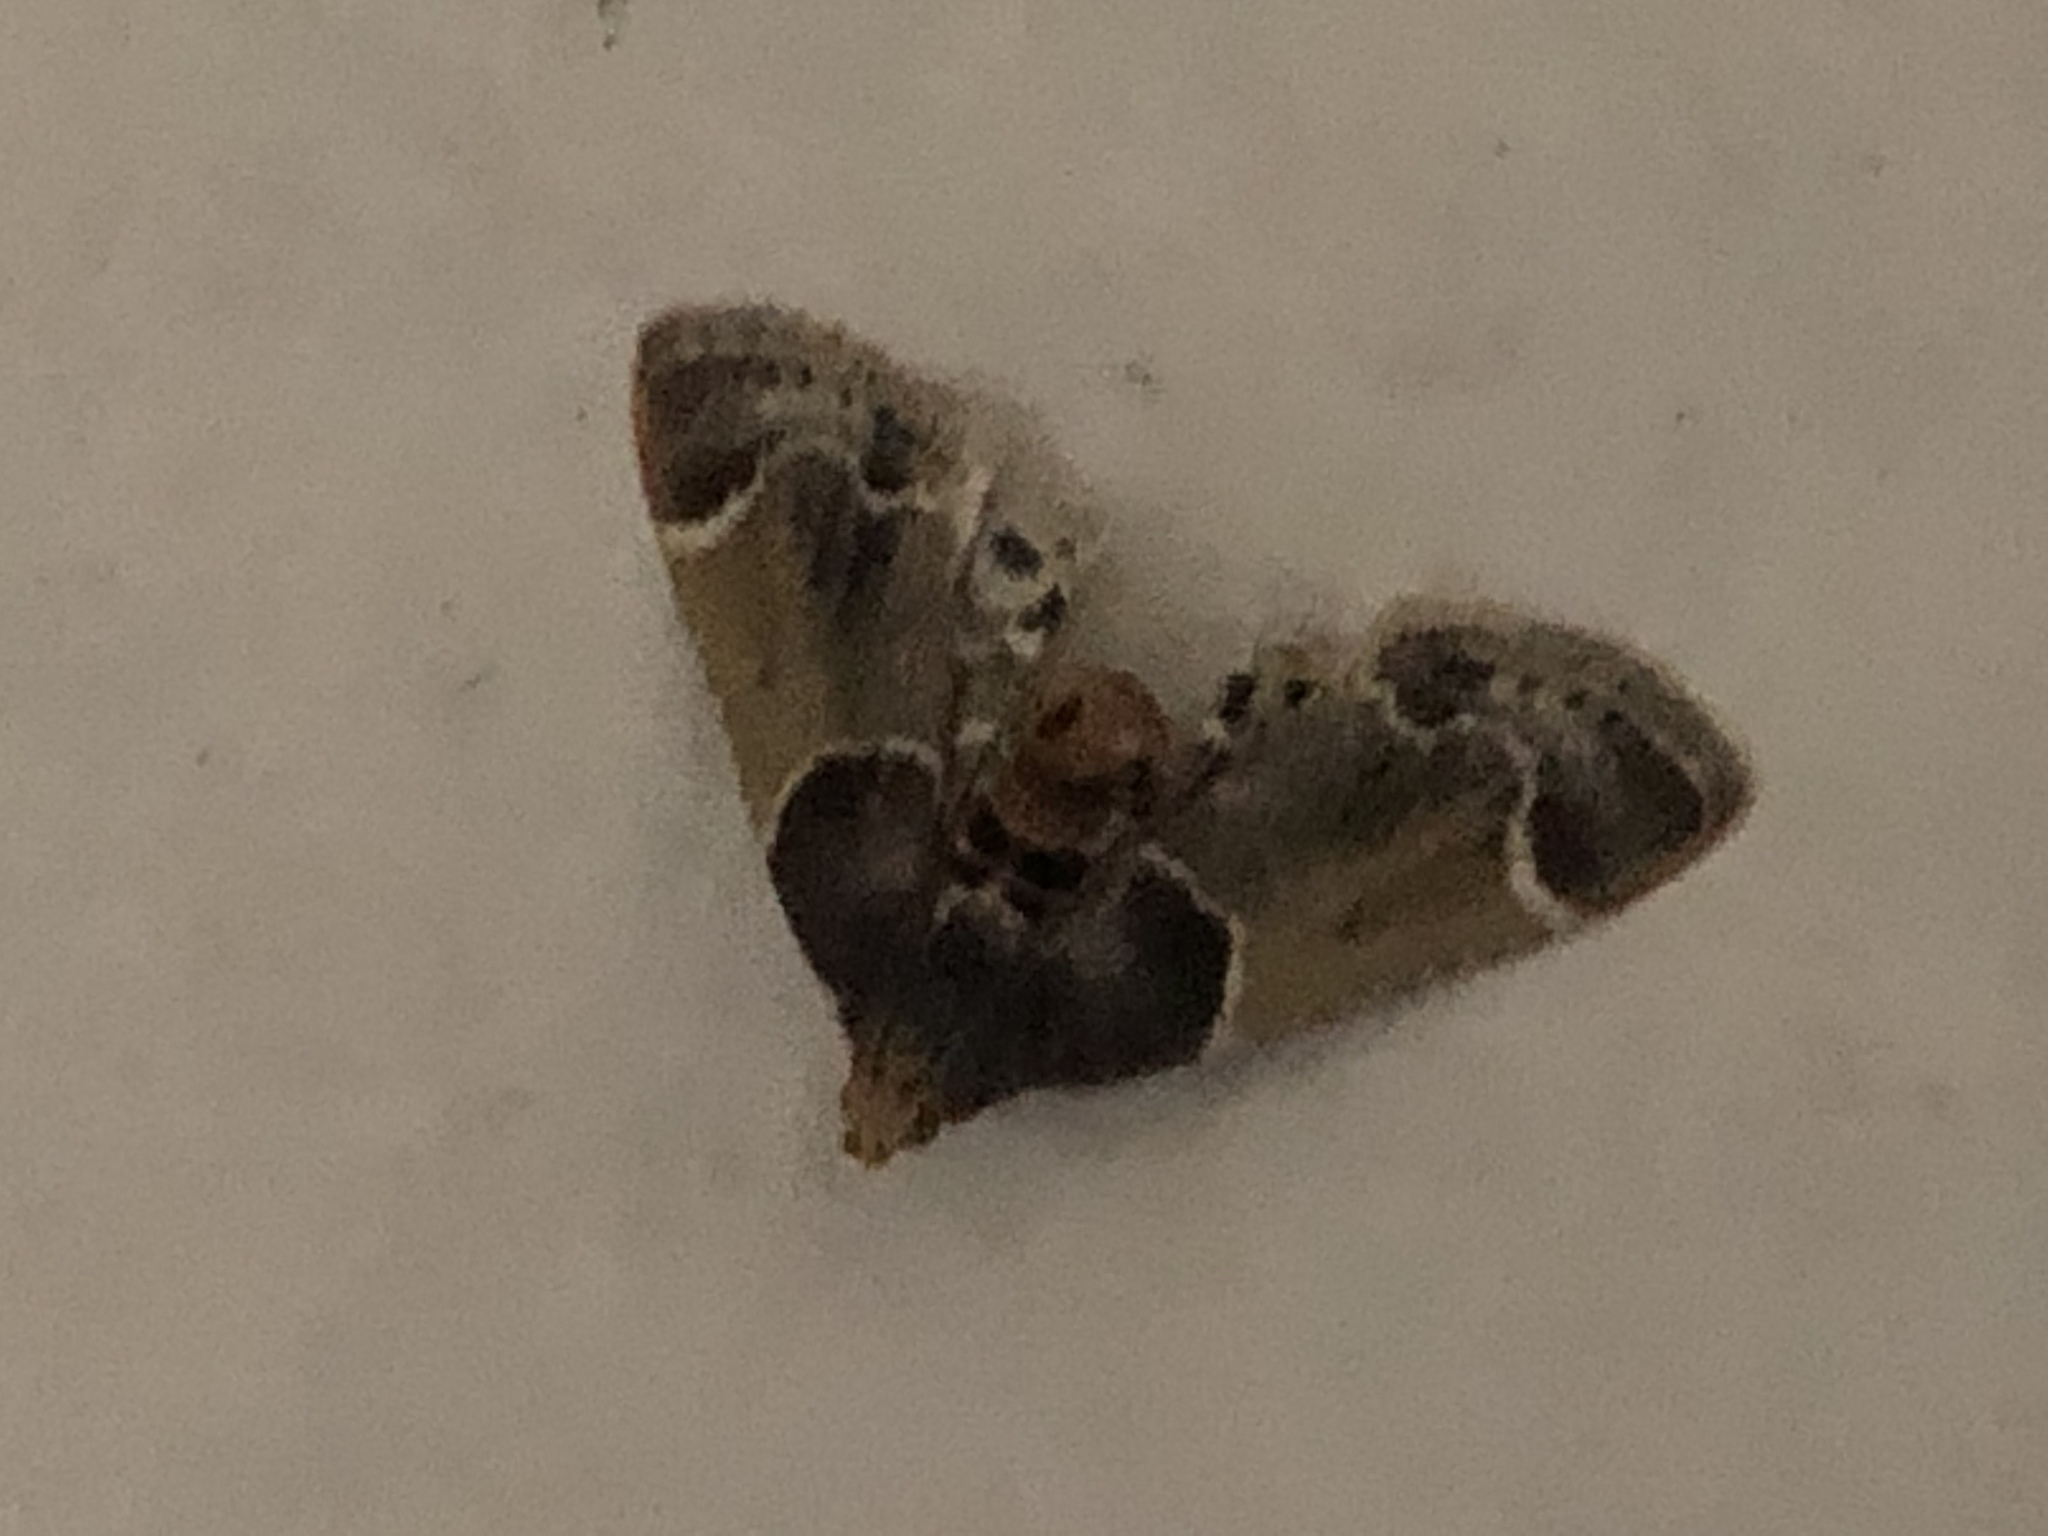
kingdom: Animalia
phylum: Arthropoda
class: Insecta
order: Lepidoptera
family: Pyralidae
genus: Pyralis
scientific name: Pyralis farinalis
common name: Meal moth
